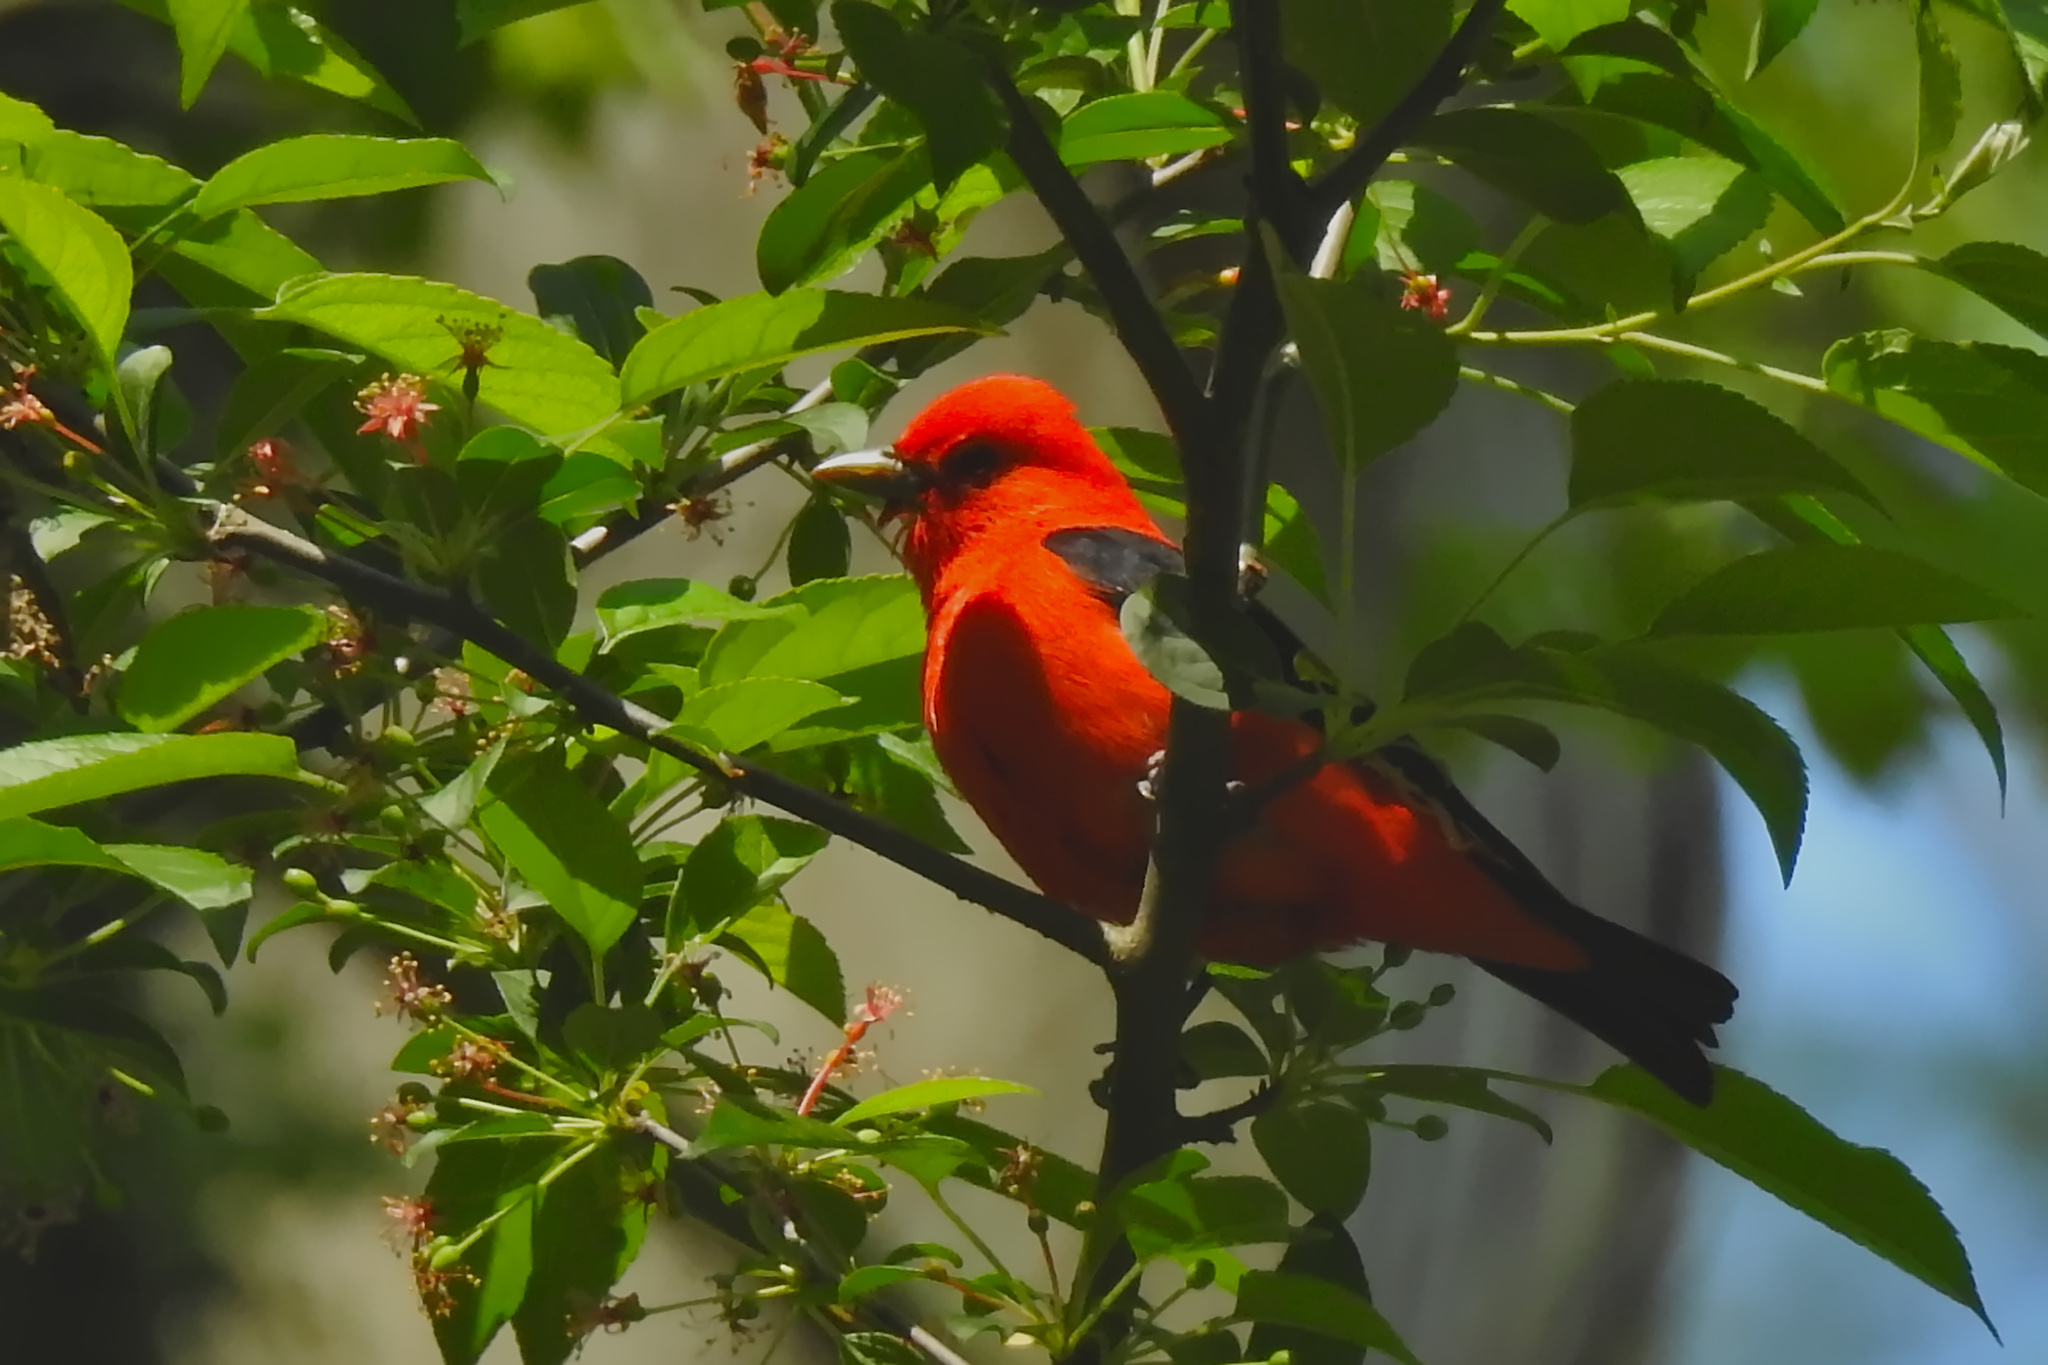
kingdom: Animalia
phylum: Chordata
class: Aves
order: Passeriformes
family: Cardinalidae
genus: Piranga
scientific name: Piranga olivacea
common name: Scarlet tanager
